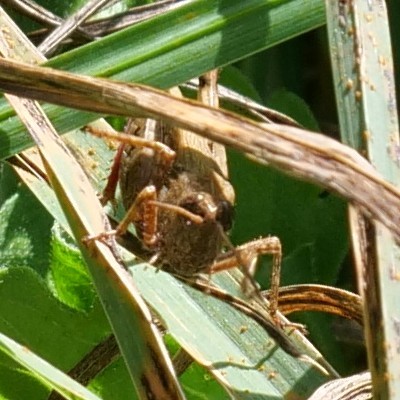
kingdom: Animalia
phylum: Arthropoda
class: Insecta
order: Orthoptera
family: Acrididae
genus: Aiolopus
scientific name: Aiolopus strepens
